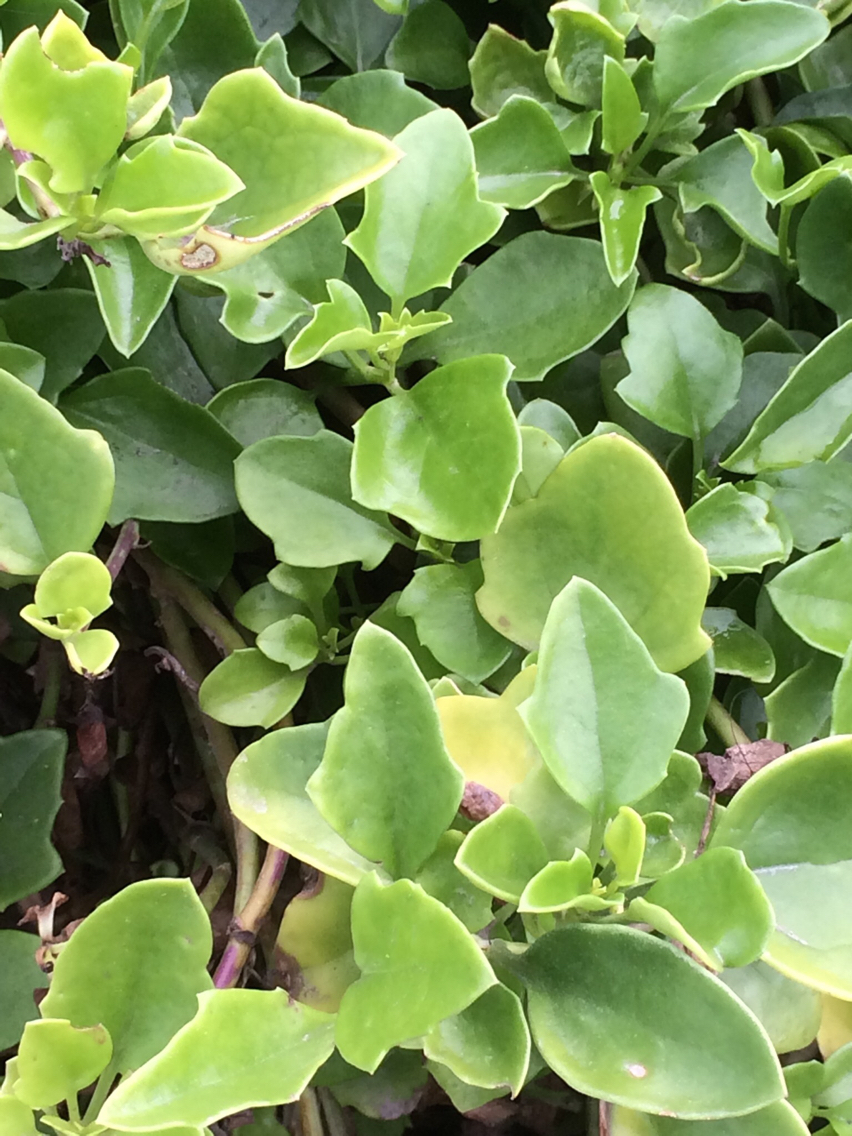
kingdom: Plantae
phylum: Tracheophyta
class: Magnoliopsida
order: Asterales
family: Asteraceae
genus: Senecio
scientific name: Senecio angulatus
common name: Climbing groundsel
